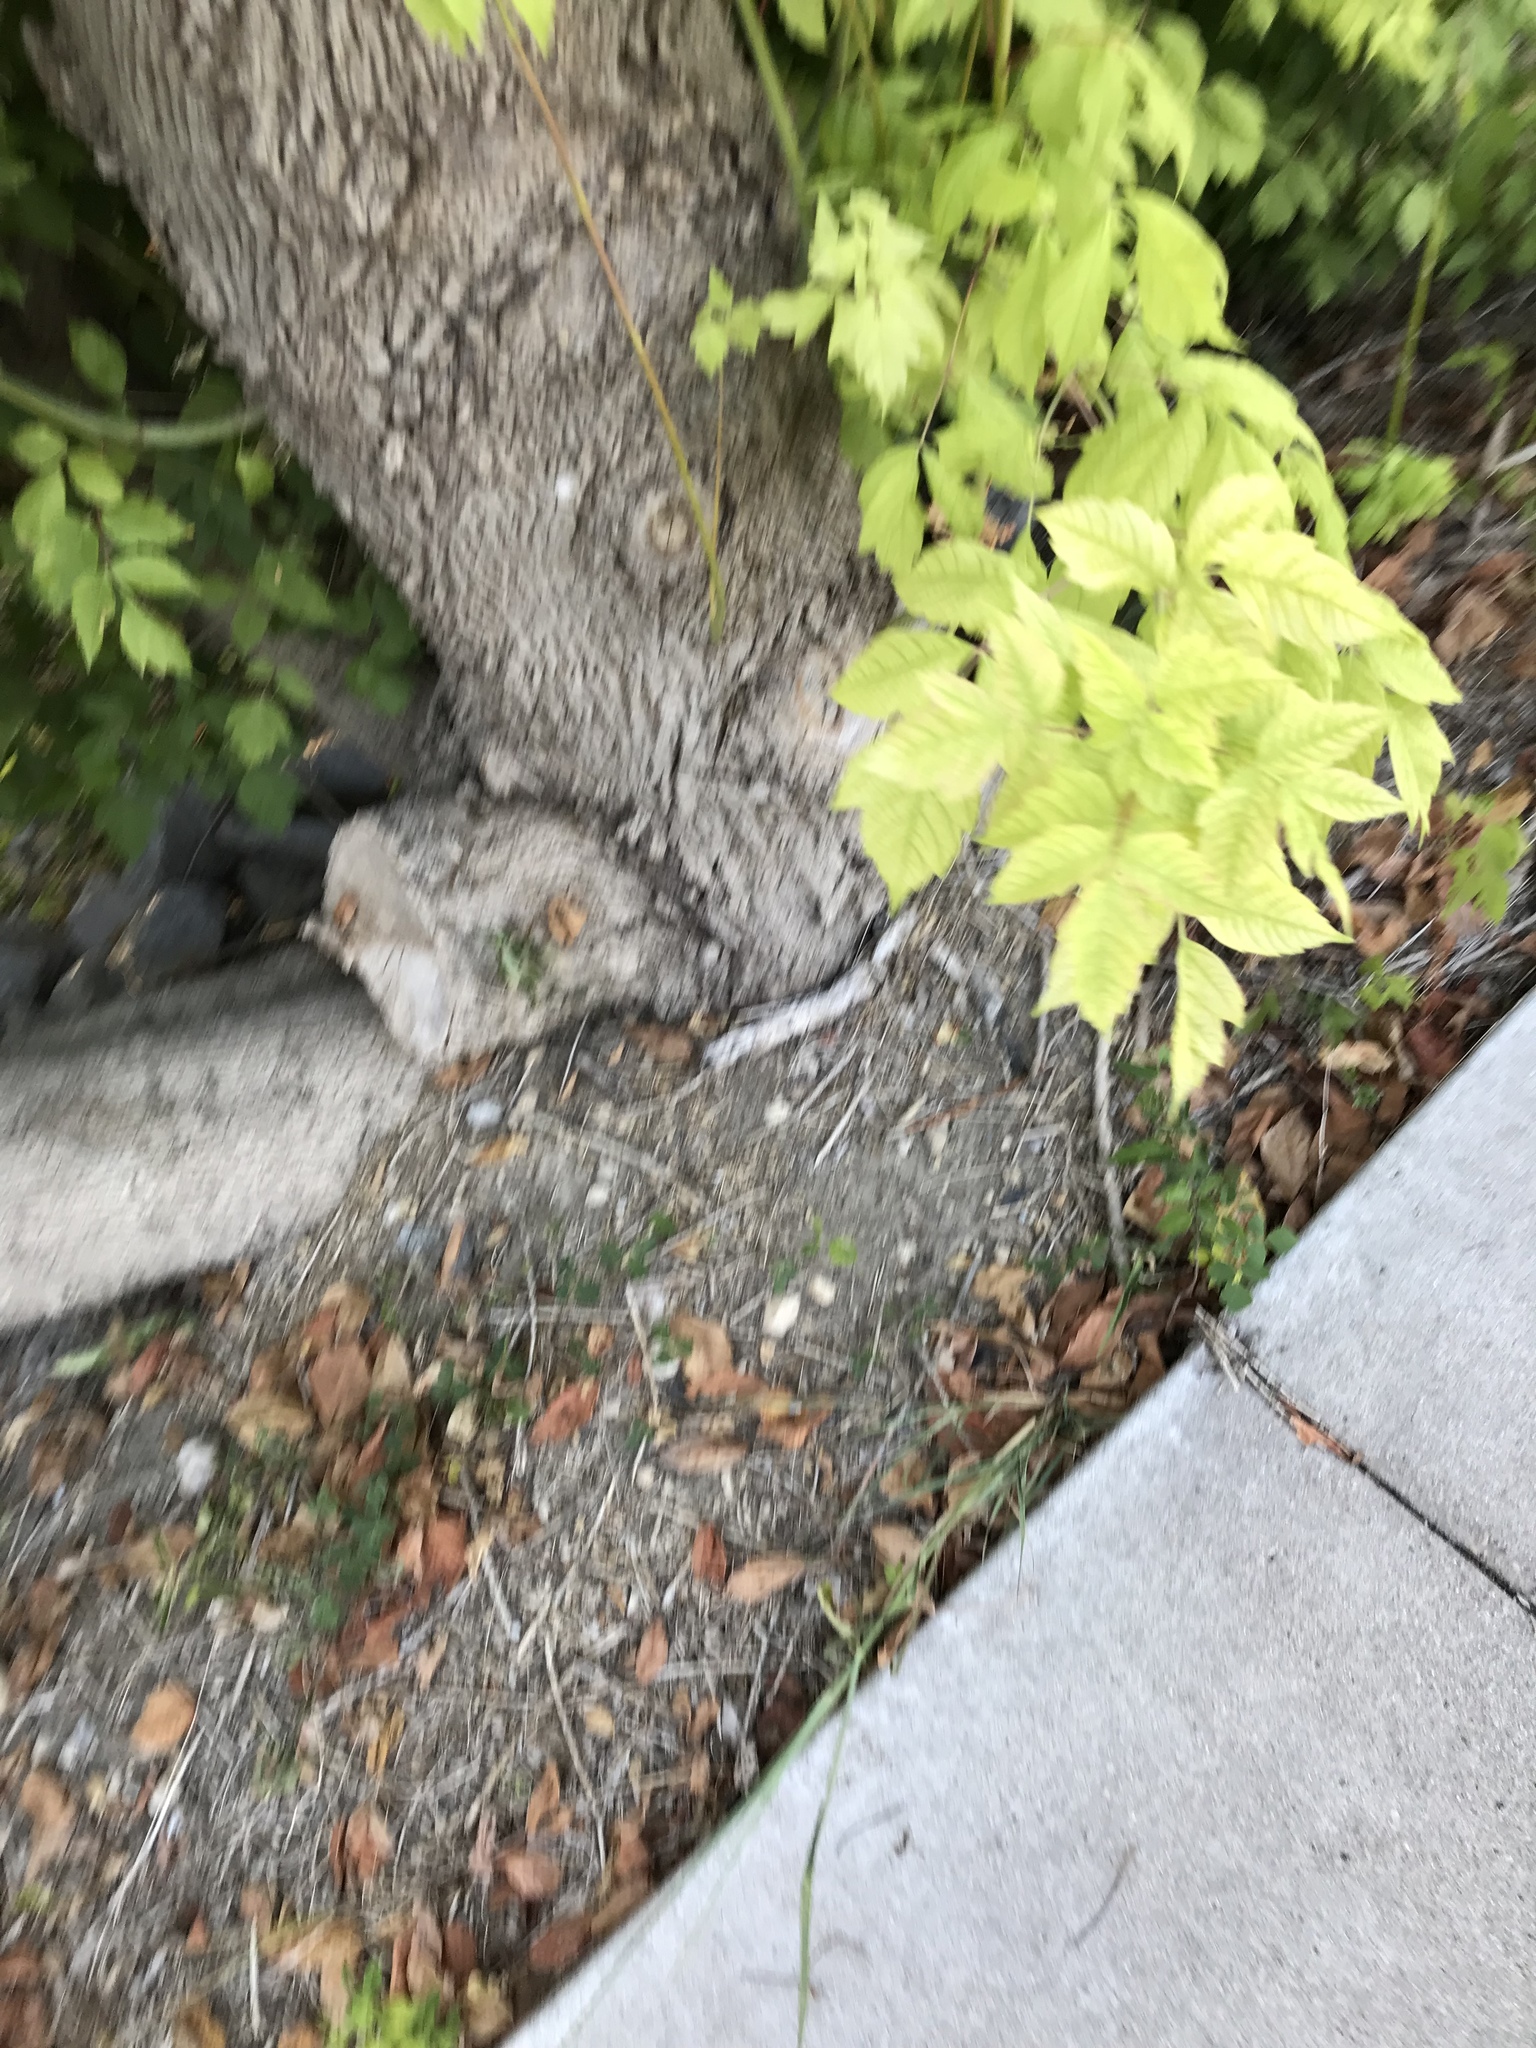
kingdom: Plantae
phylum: Tracheophyta
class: Magnoliopsida
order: Sapindales
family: Sapindaceae
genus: Acer
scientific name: Acer negundo
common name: Ashleaf maple
